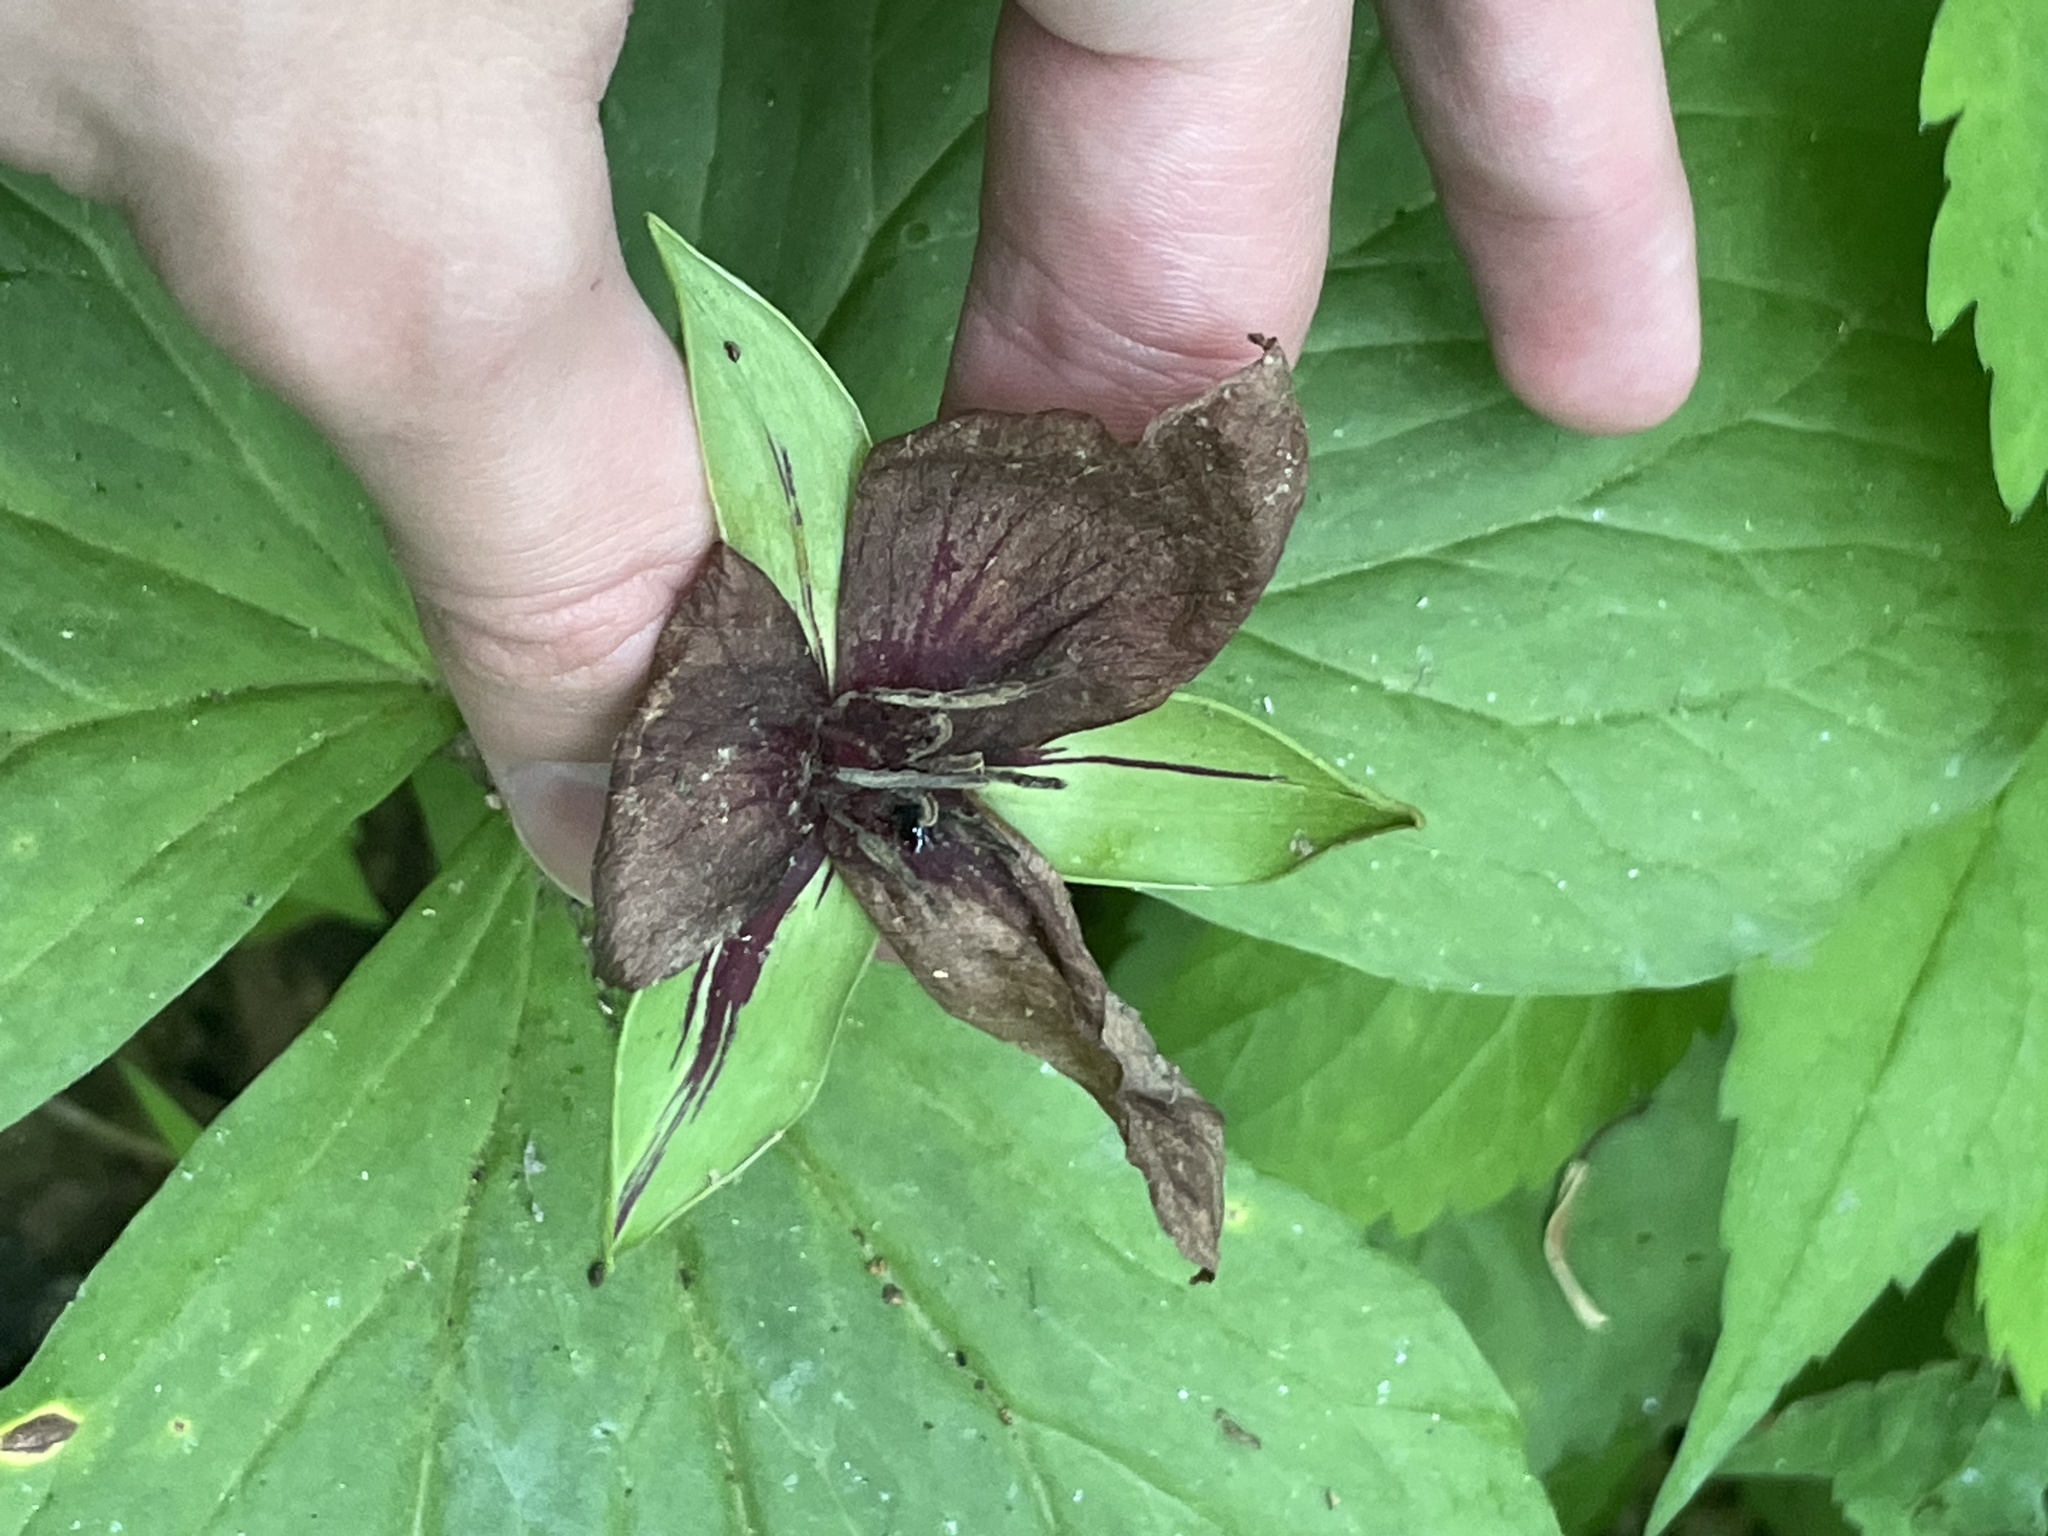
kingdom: Plantae
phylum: Tracheophyta
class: Liliopsida
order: Liliales
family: Melanthiaceae
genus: Trillium
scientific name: Trillium vaseyi
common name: Sweet trillium
